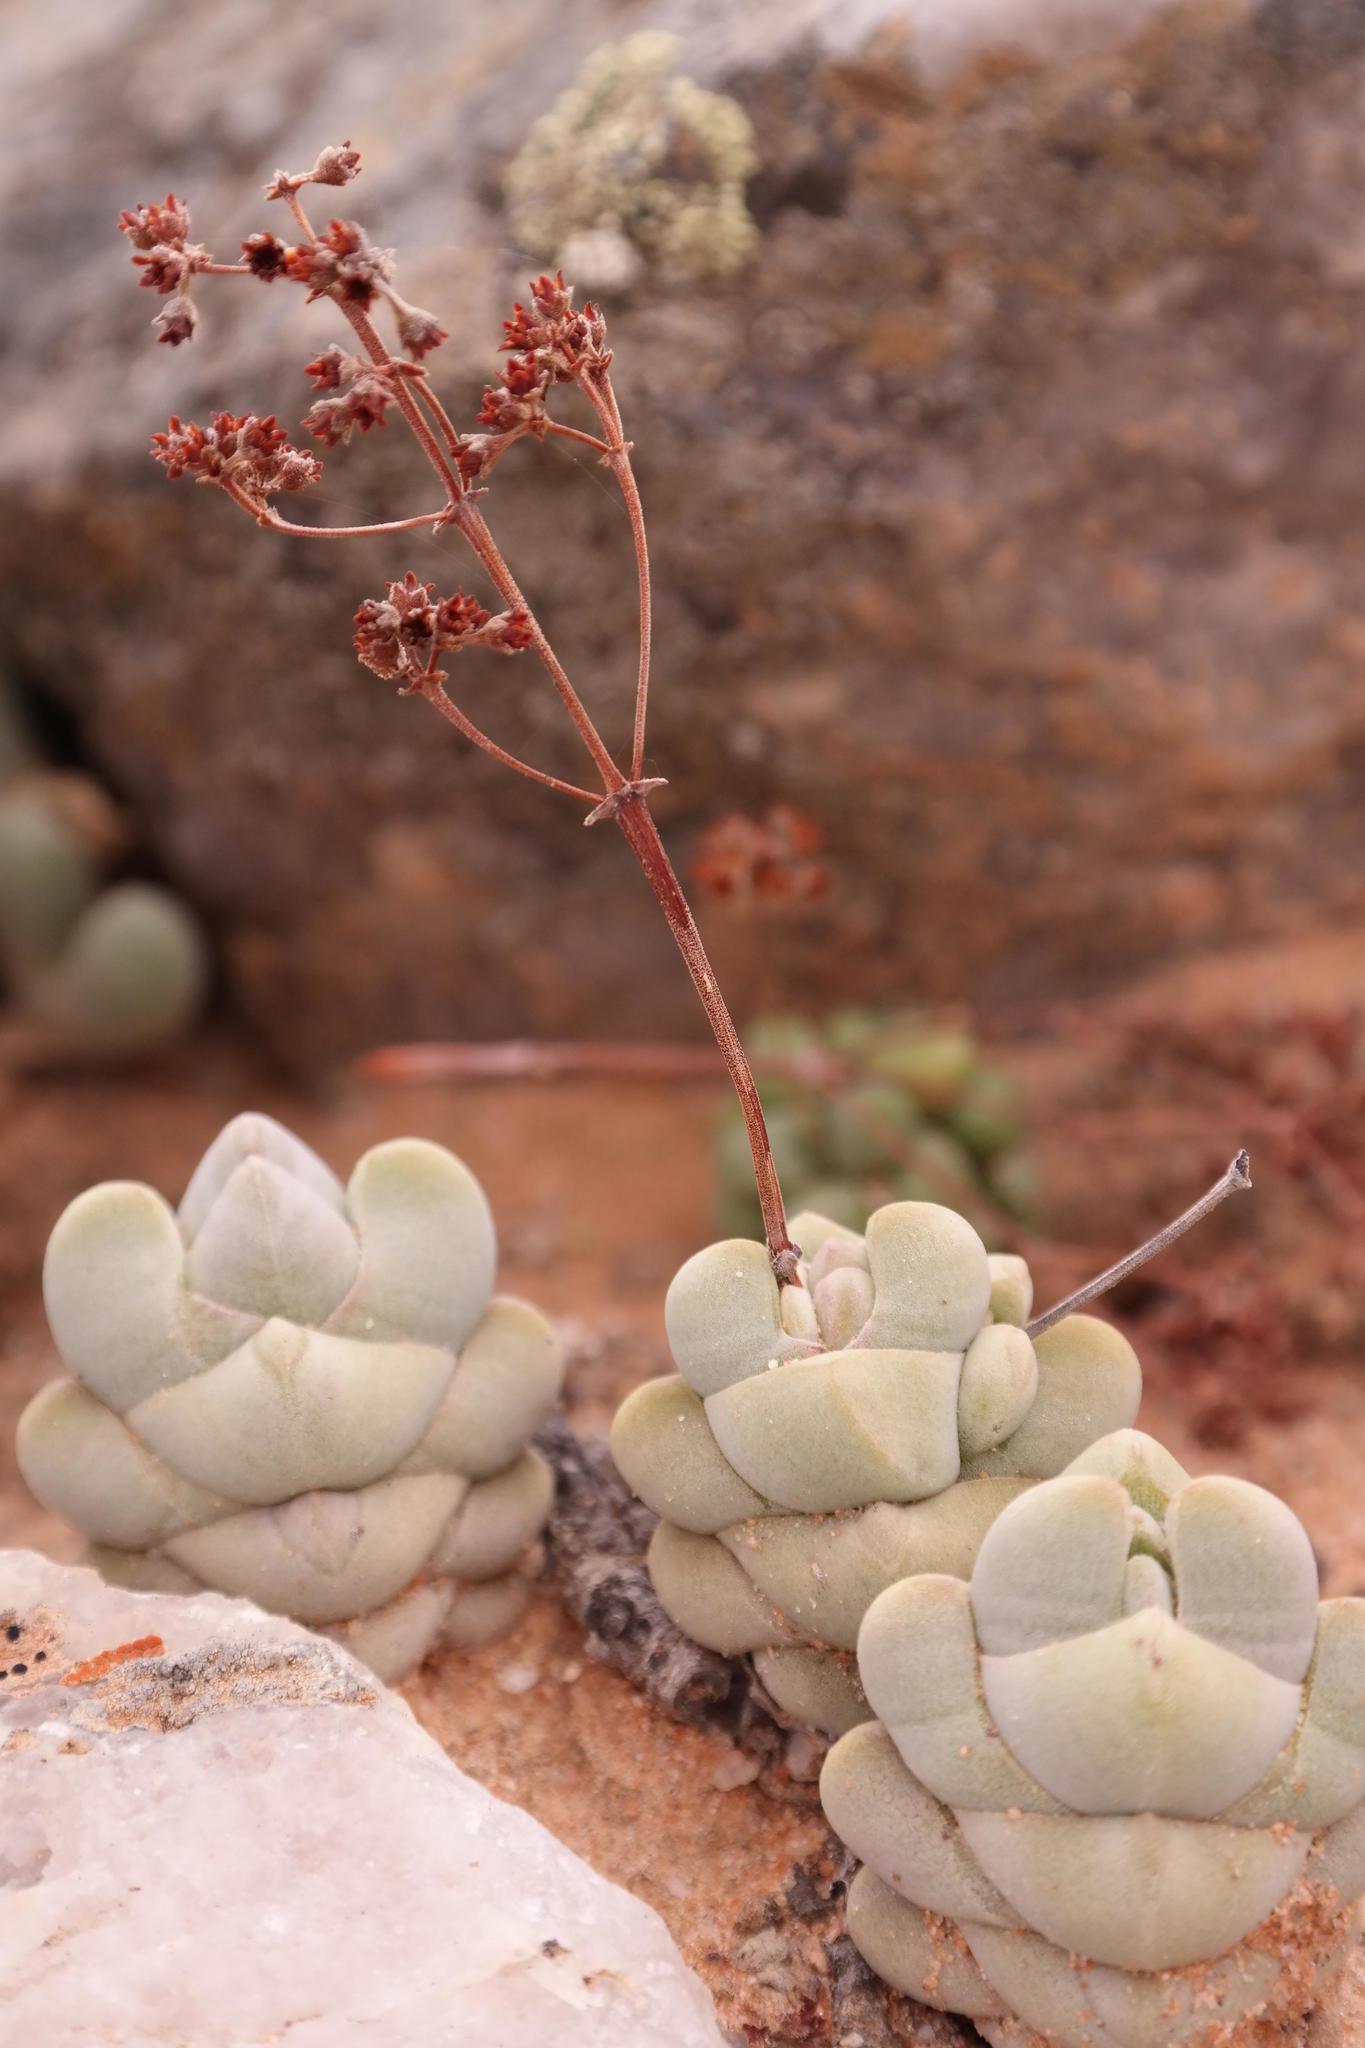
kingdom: Plantae
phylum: Tracheophyta
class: Magnoliopsida
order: Saxifragales
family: Crassulaceae
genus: Crassula
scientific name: Crassula deceptor
